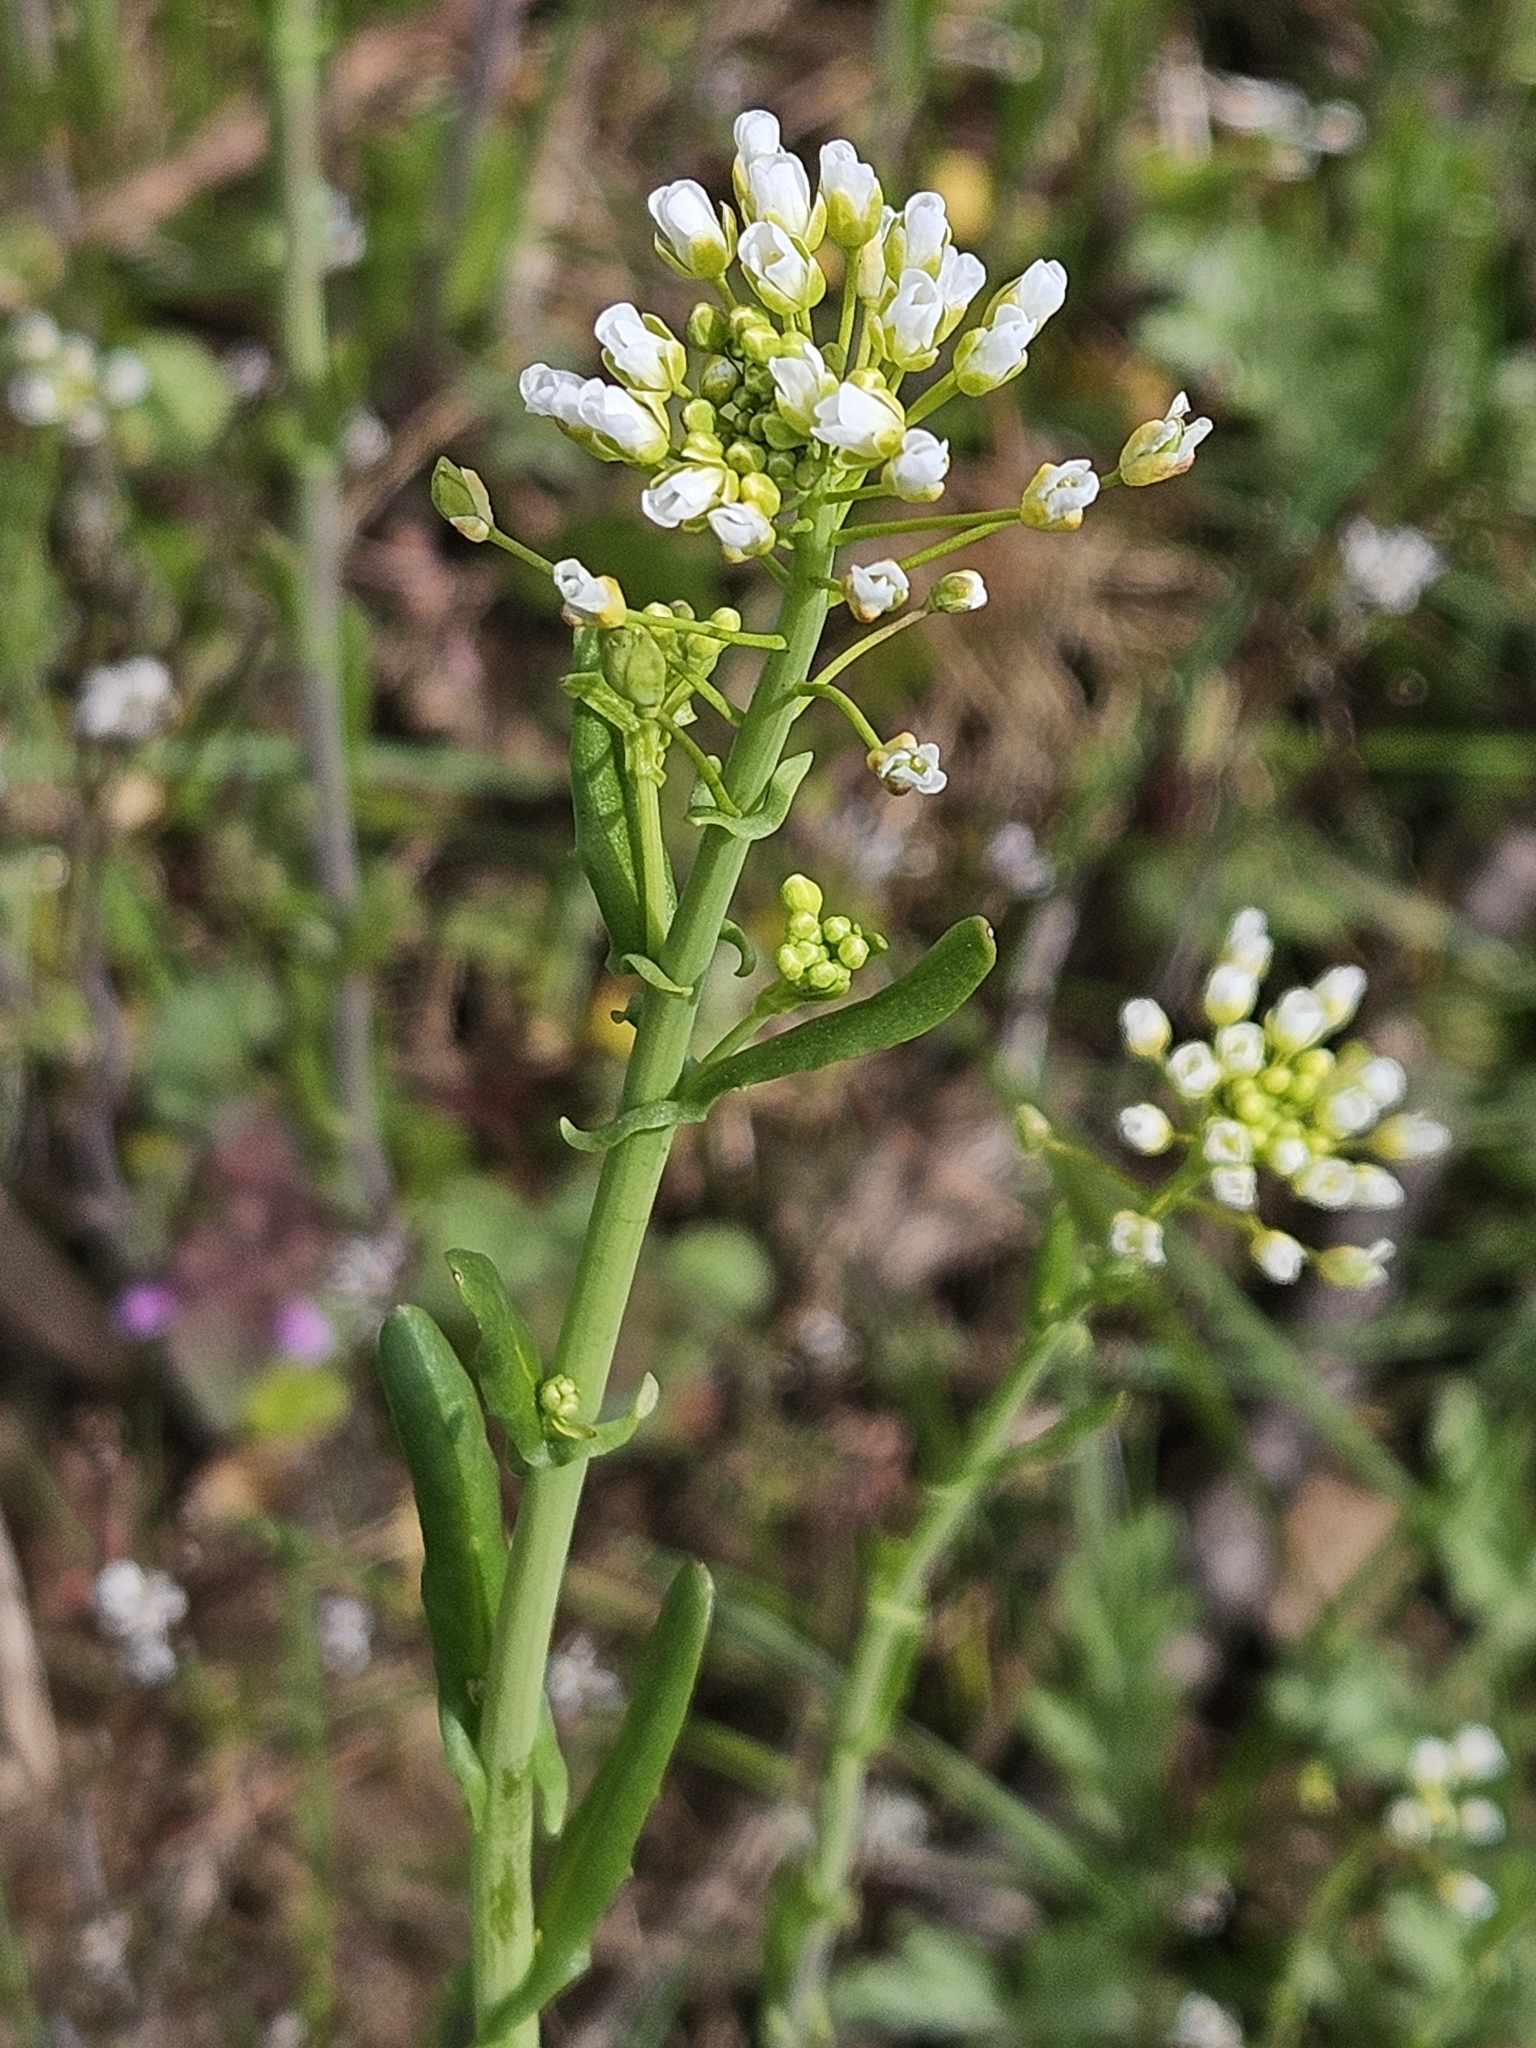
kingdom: Plantae
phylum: Tracheophyta
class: Magnoliopsida
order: Brassicales
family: Brassicaceae
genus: Mummenhoffia
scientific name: Mummenhoffia alliacea
